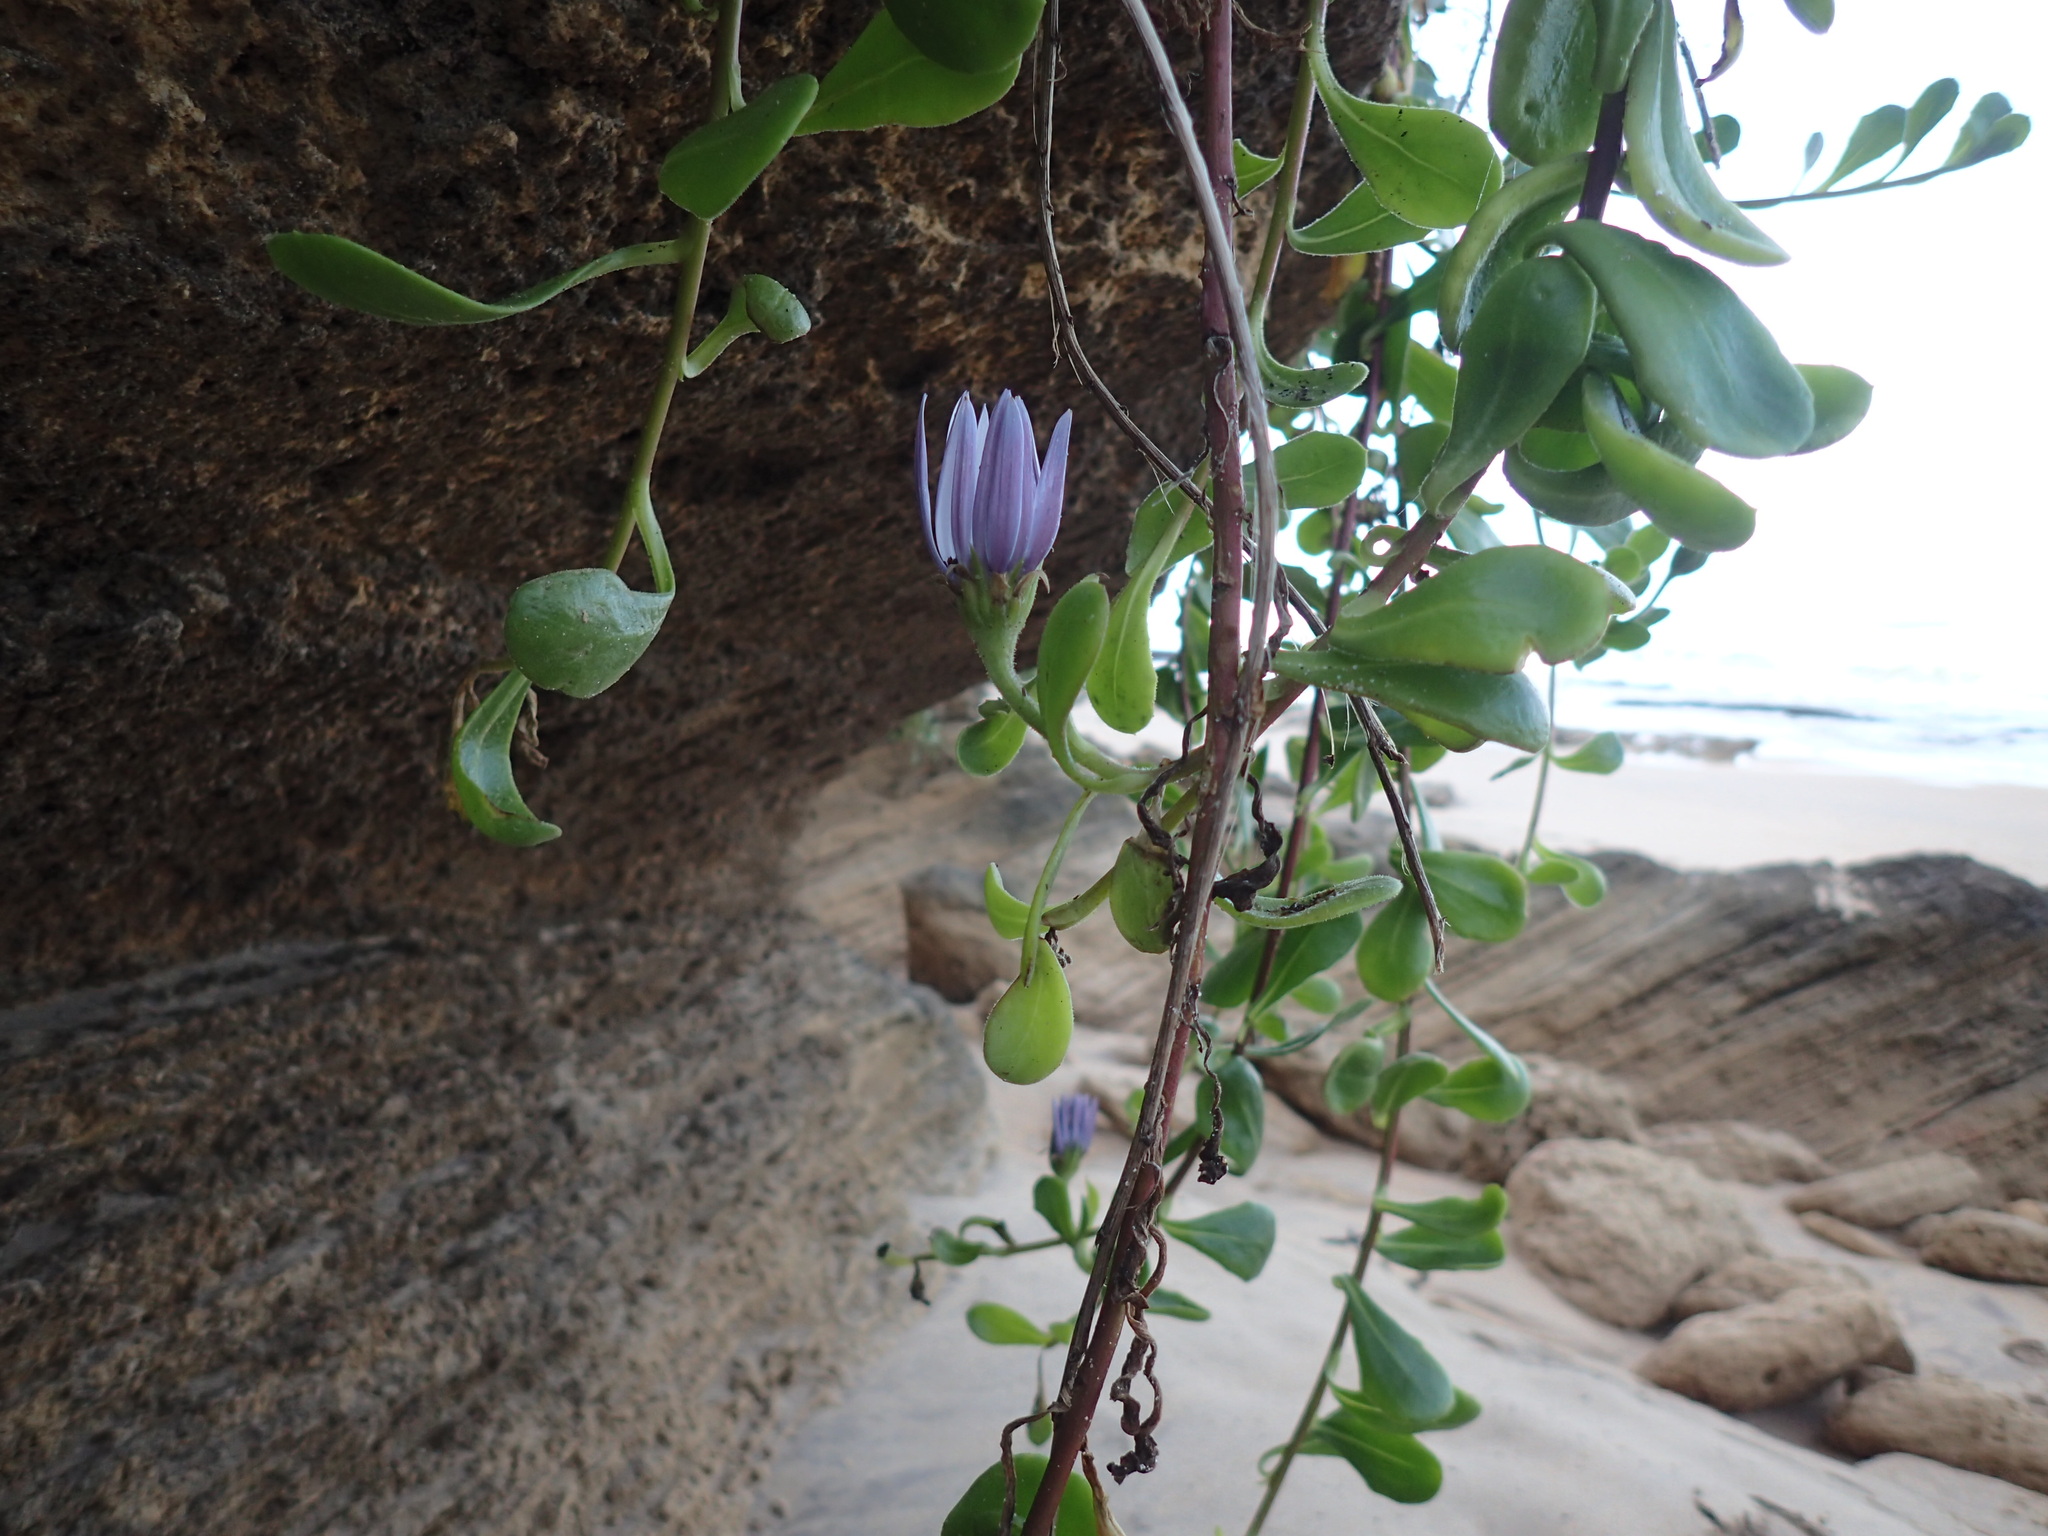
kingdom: Plantae
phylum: Tracheophyta
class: Magnoliopsida
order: Asterales
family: Asteraceae
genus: Dimorphotheca
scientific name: Dimorphotheca fruticosa
